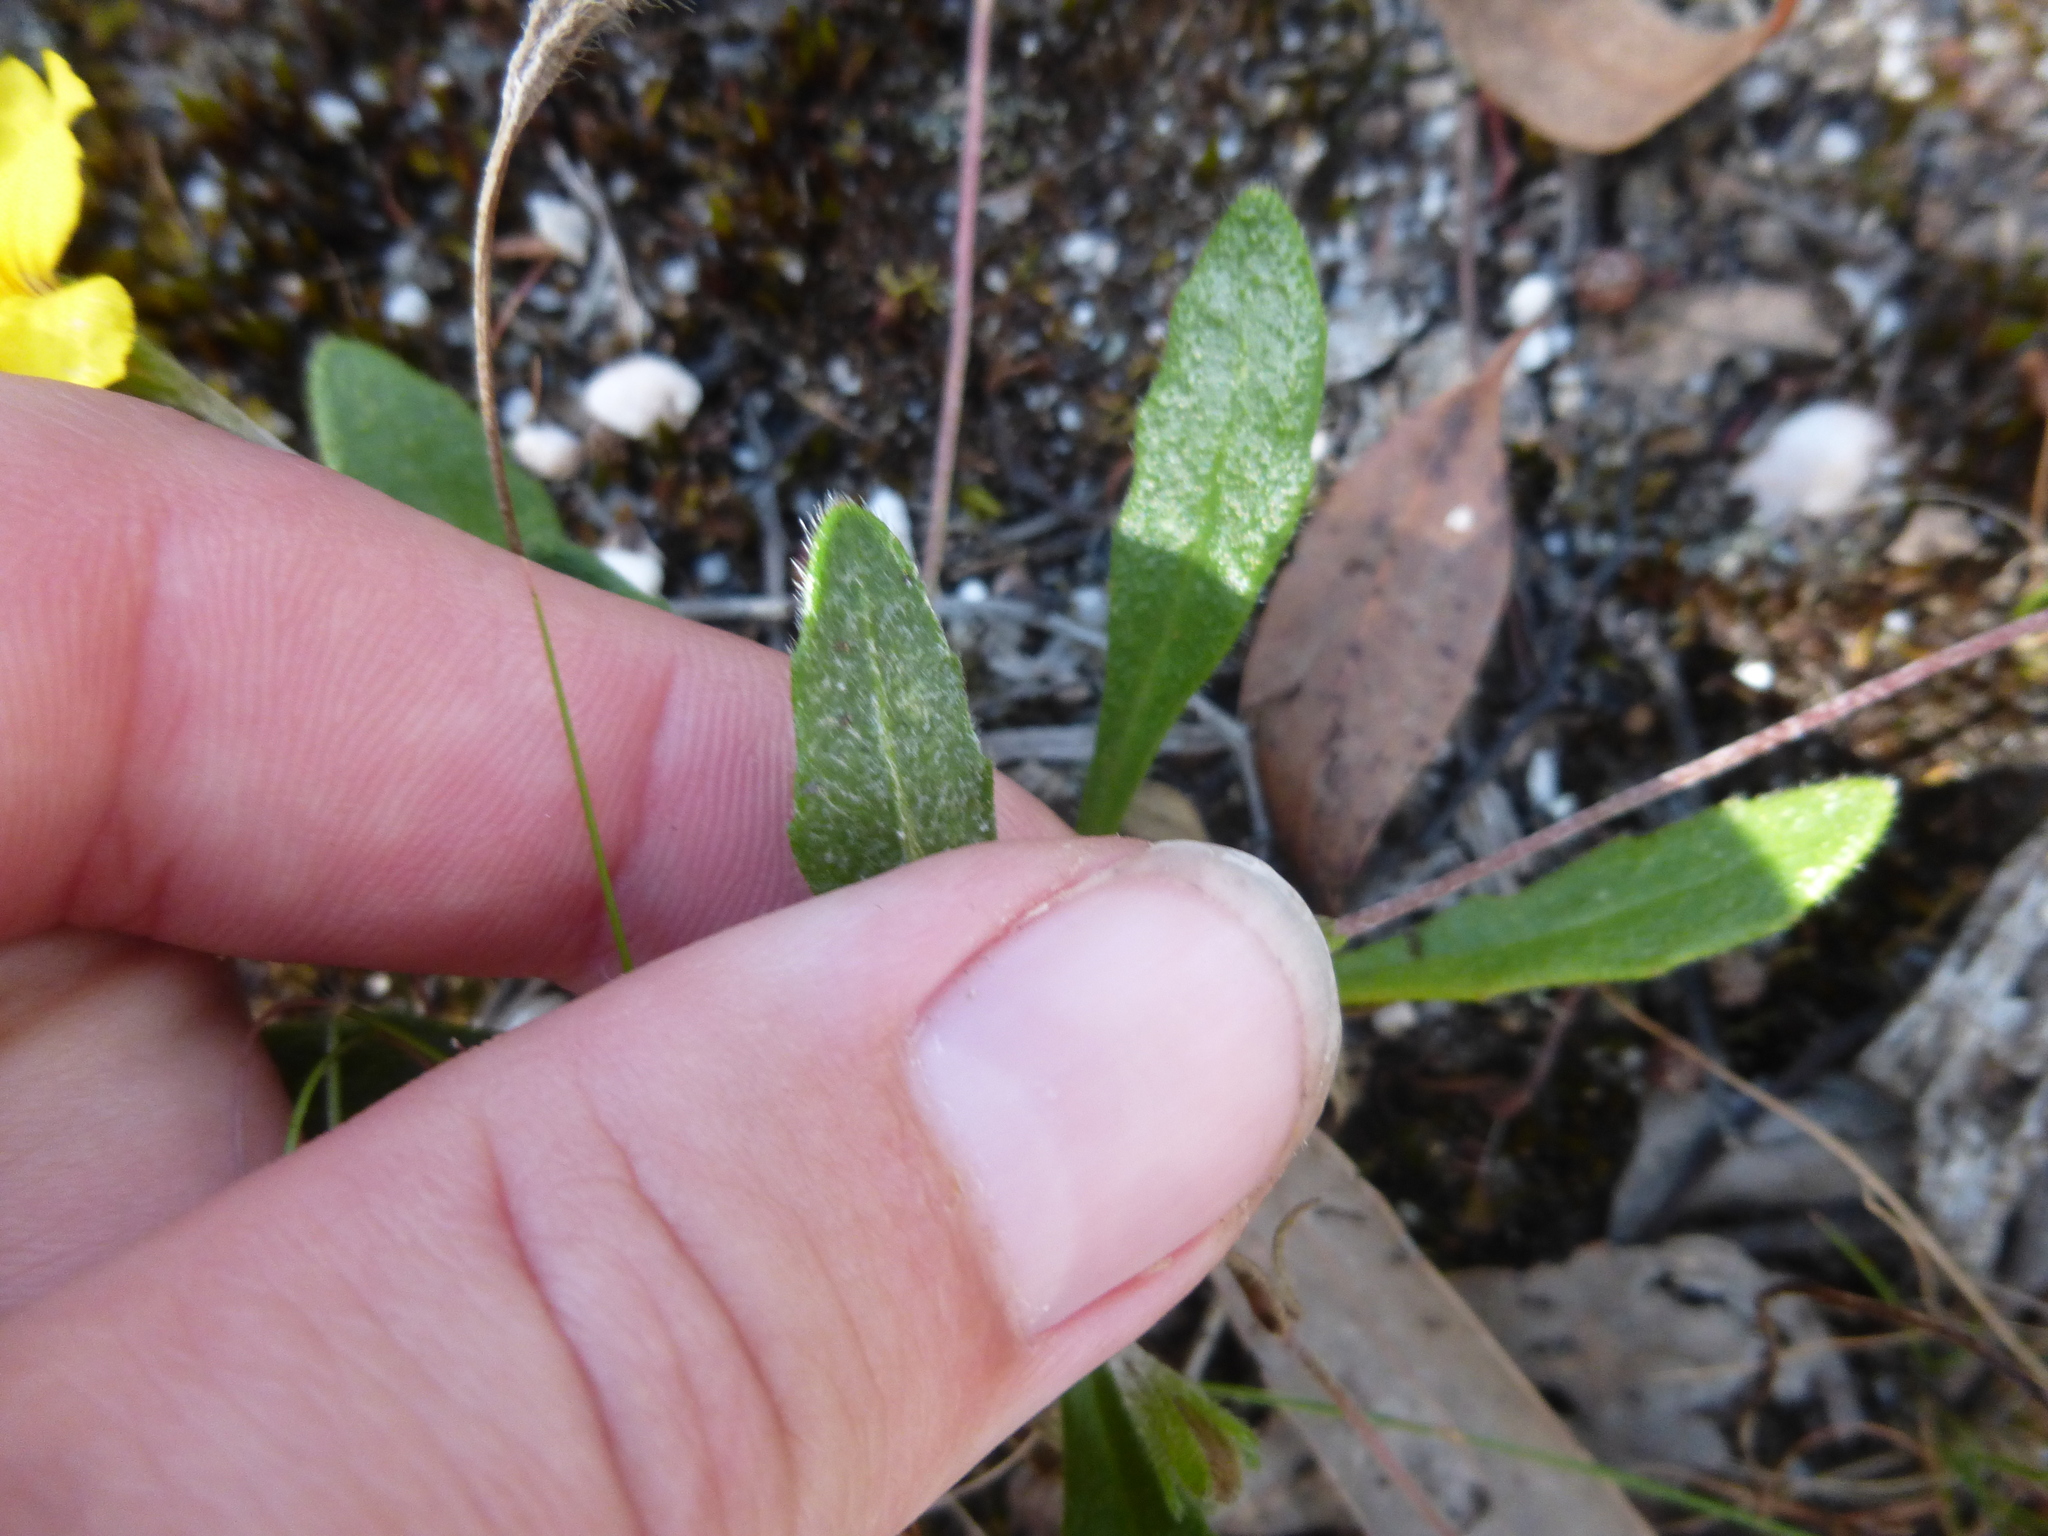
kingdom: Plantae
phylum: Tracheophyta
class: Magnoliopsida
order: Asterales
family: Goodeniaceae
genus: Goodenia
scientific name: Goodenia geniculata
